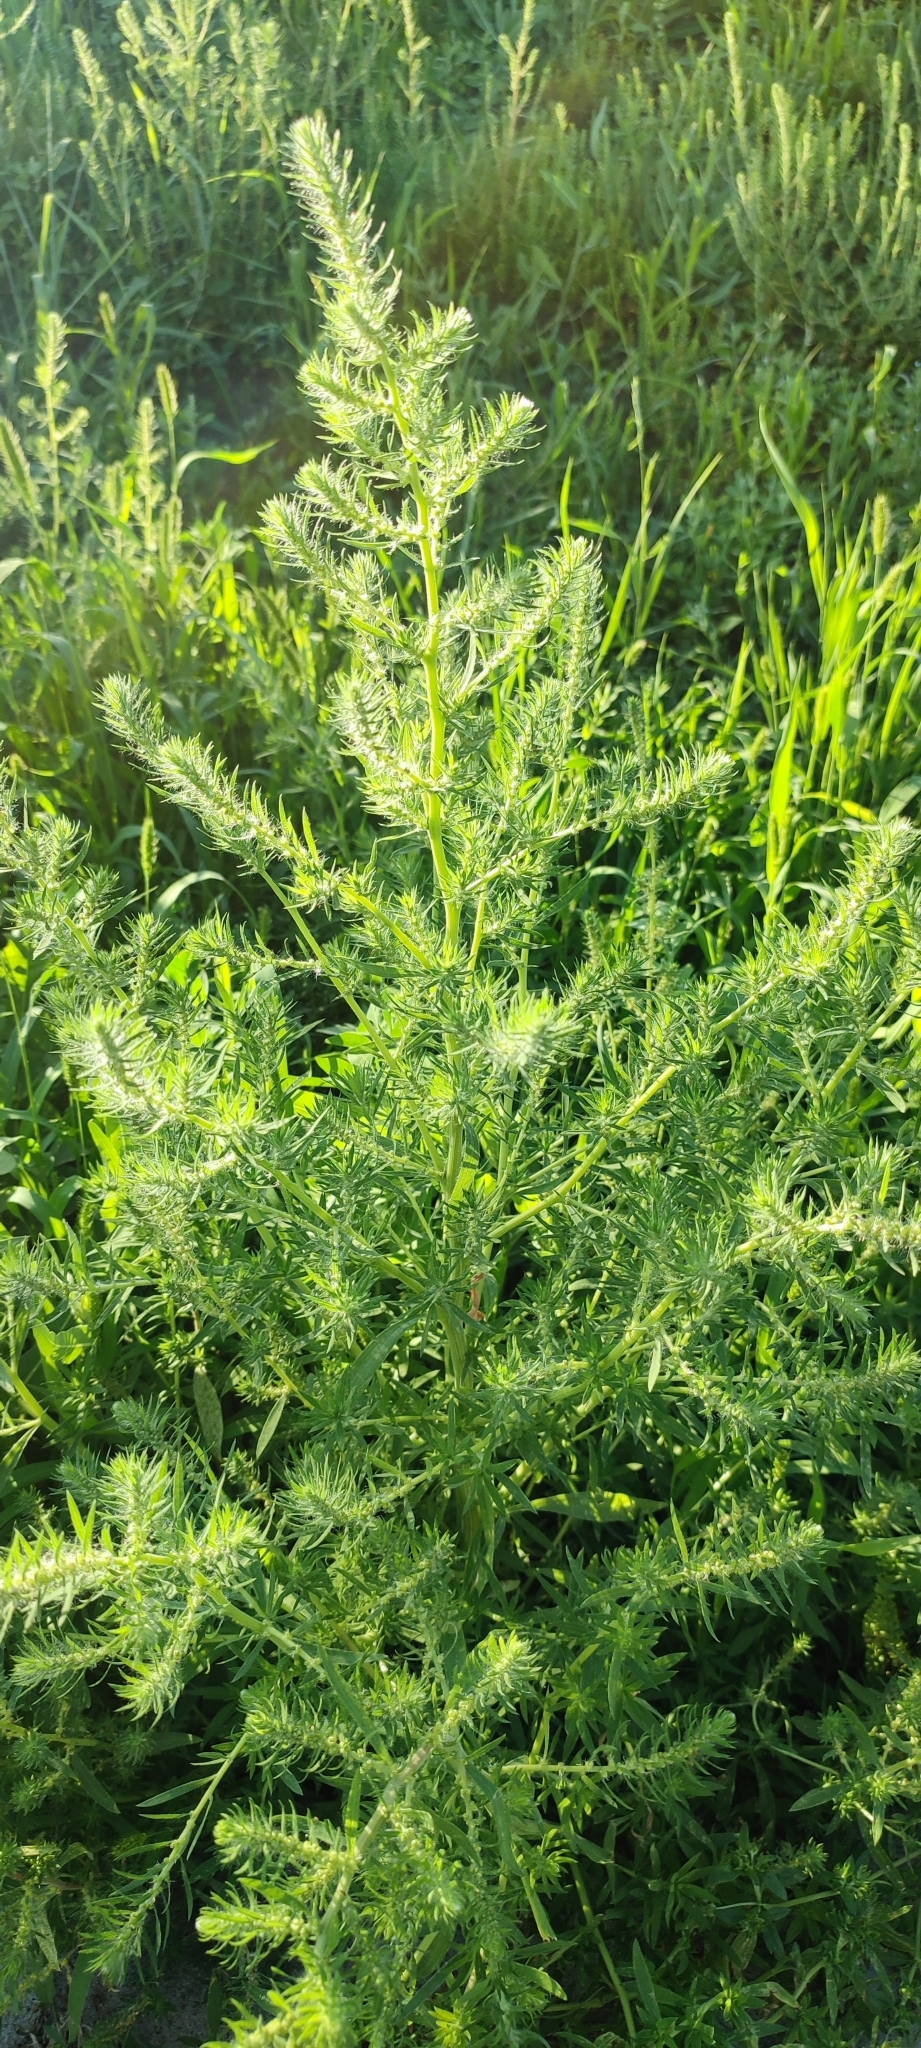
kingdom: Plantae
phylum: Tracheophyta
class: Magnoliopsida
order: Caryophyllales
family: Amaranthaceae
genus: Bassia
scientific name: Bassia scoparia
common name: Belvedere
